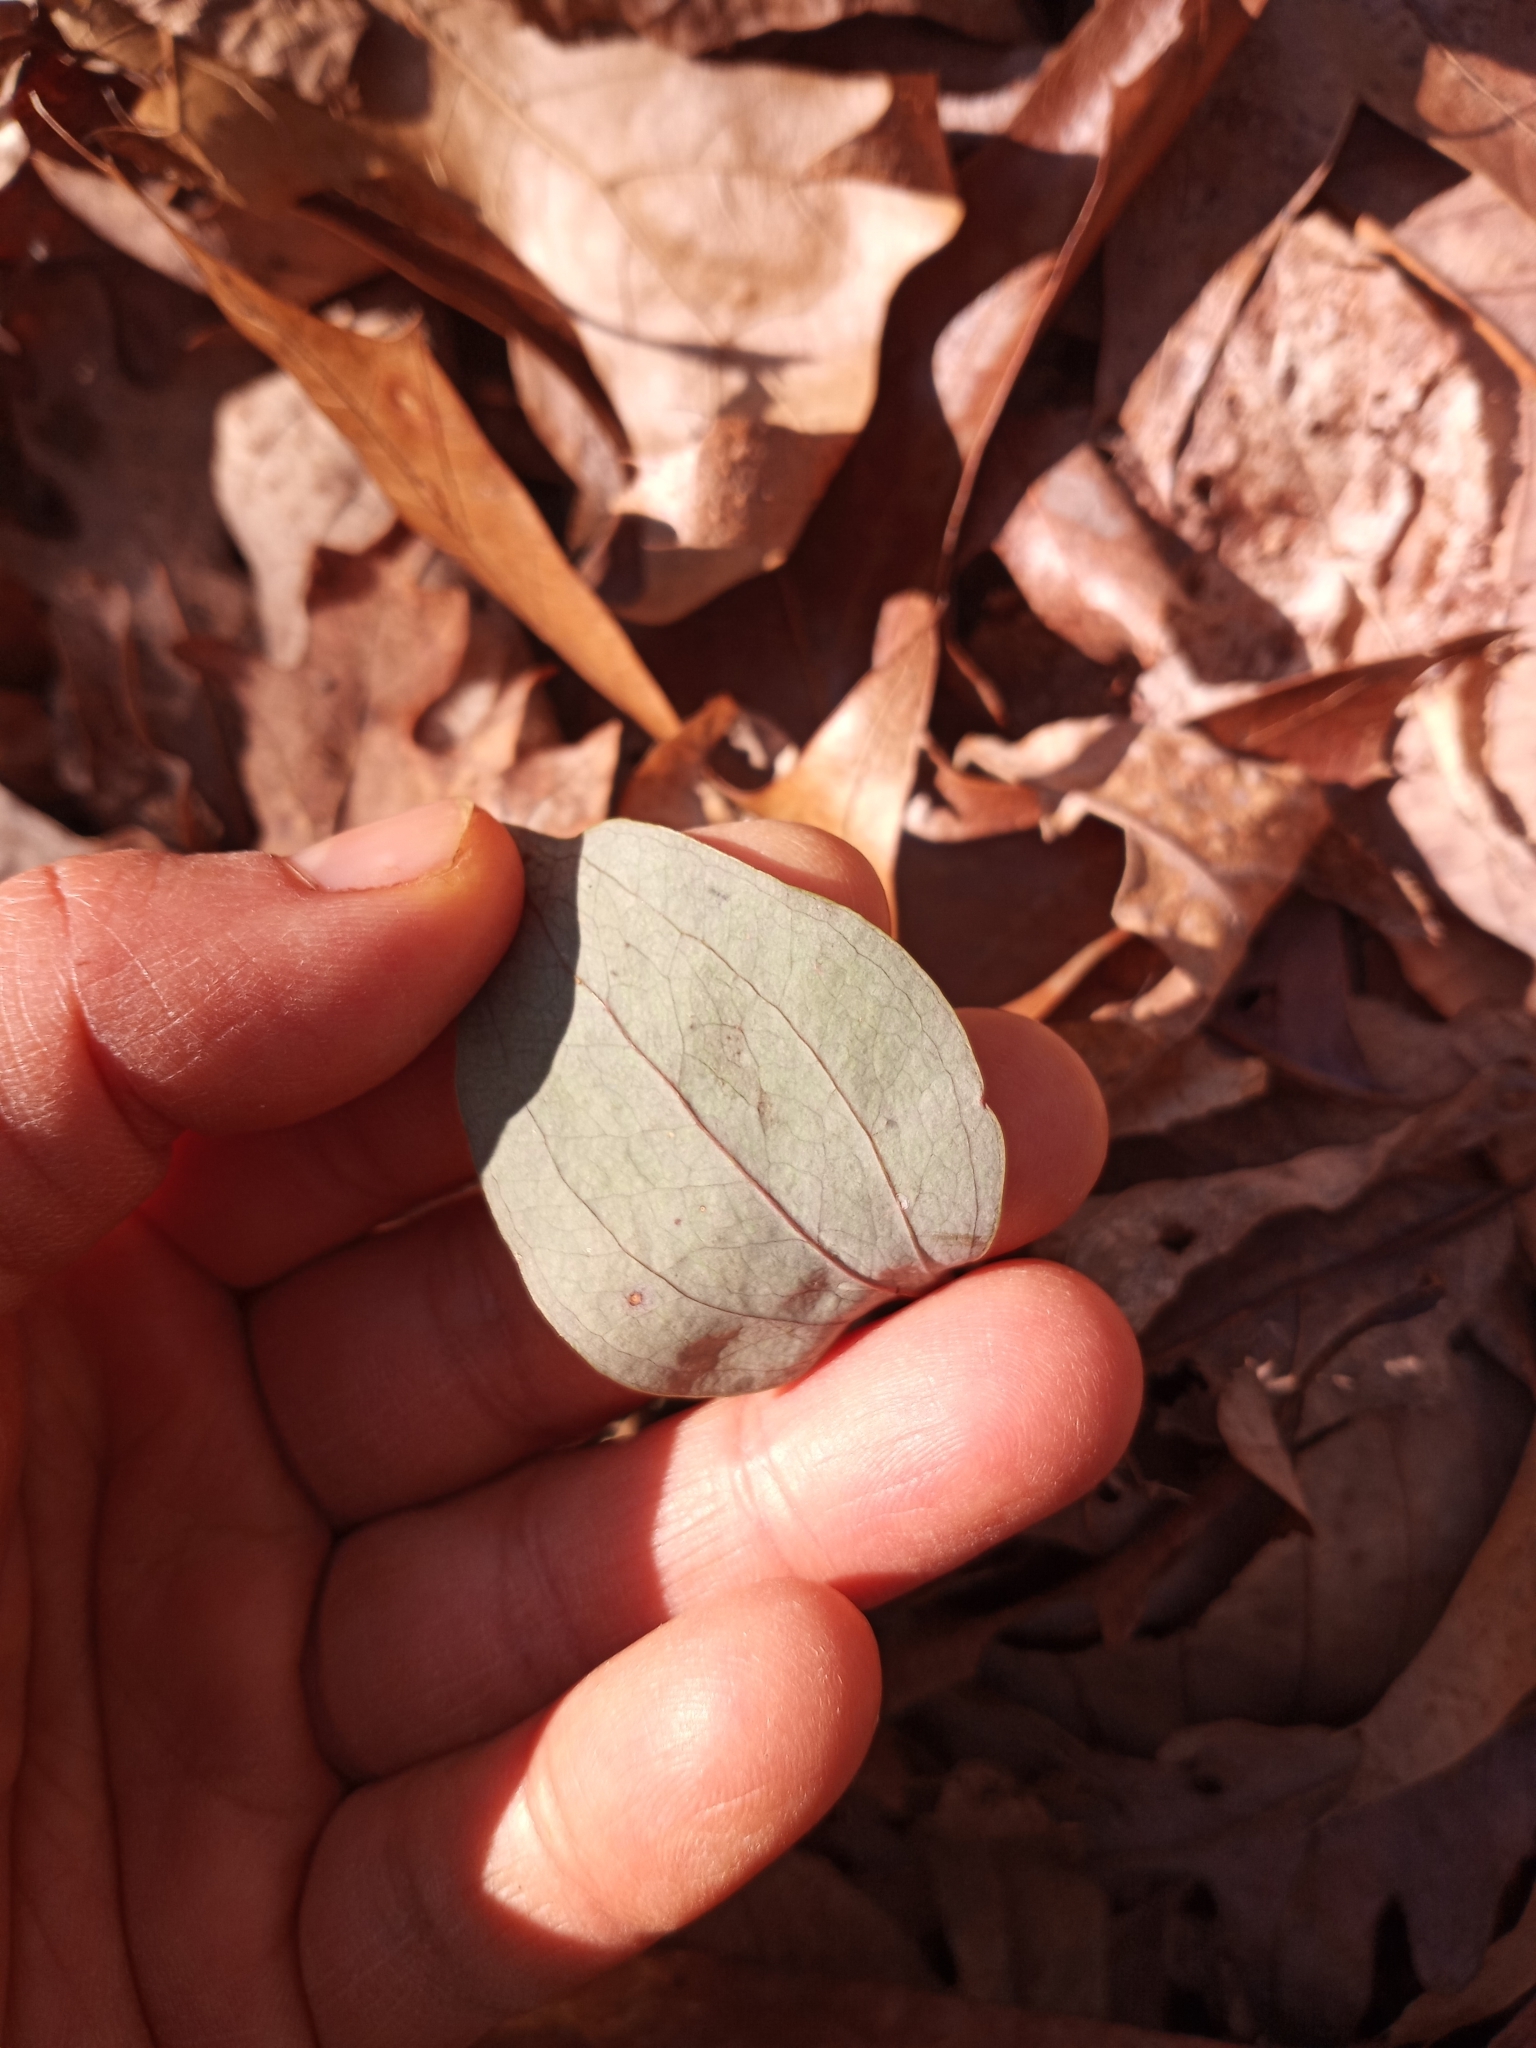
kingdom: Plantae
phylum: Tracheophyta
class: Liliopsida
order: Liliales
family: Smilacaceae
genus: Smilax
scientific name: Smilax glauca
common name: Cat greenbrier
